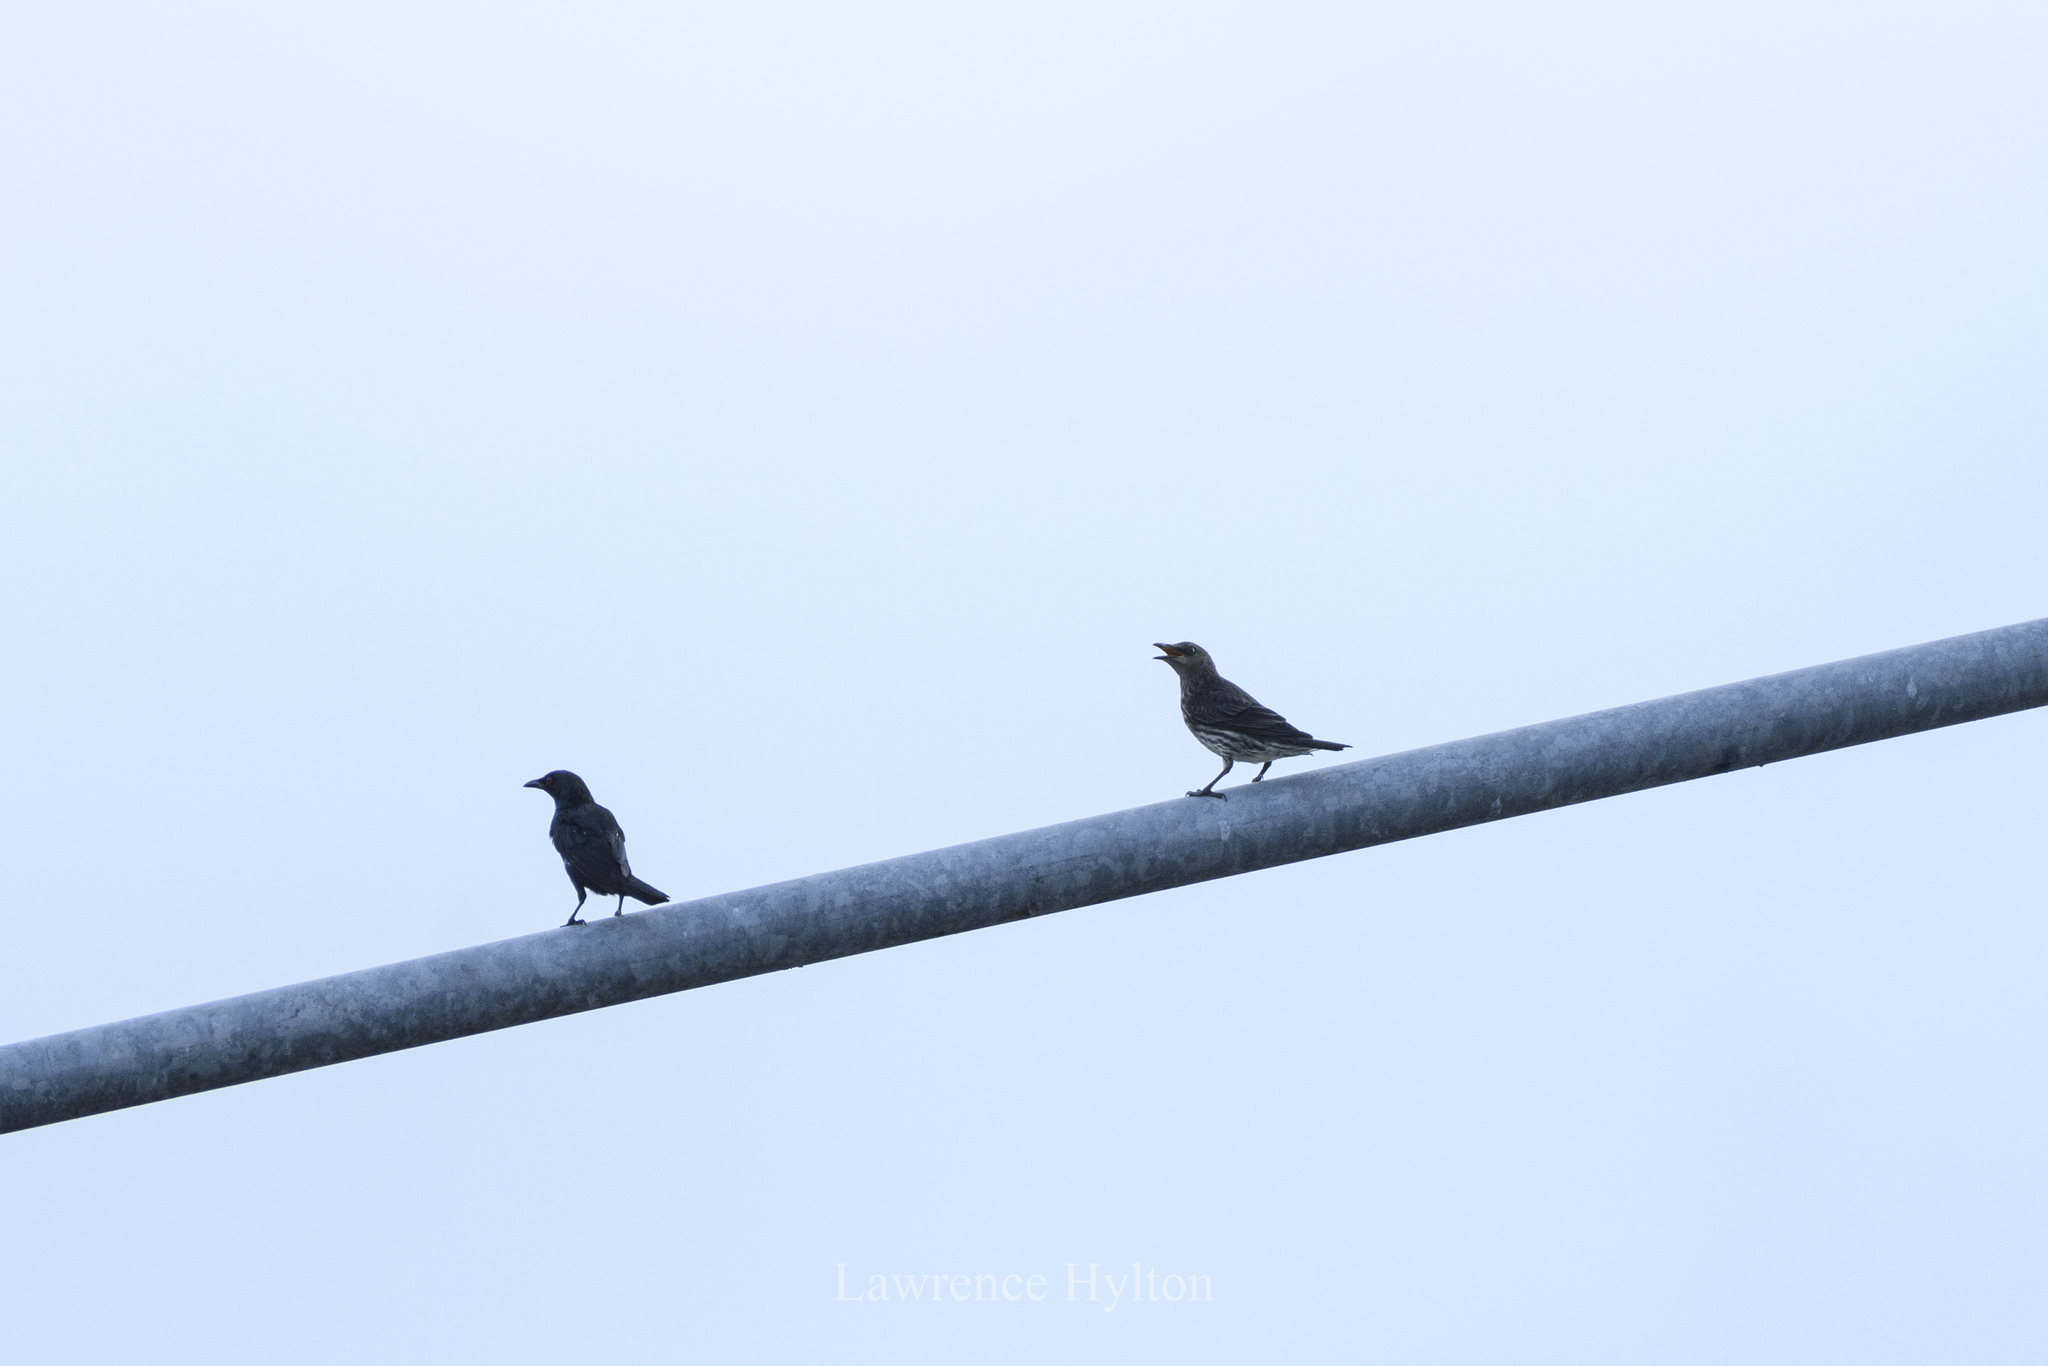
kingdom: Animalia
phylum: Chordata
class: Aves
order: Passeriformes
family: Sturnidae
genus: Aplonis
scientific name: Aplonis panayensis
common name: Asian glossy starling
